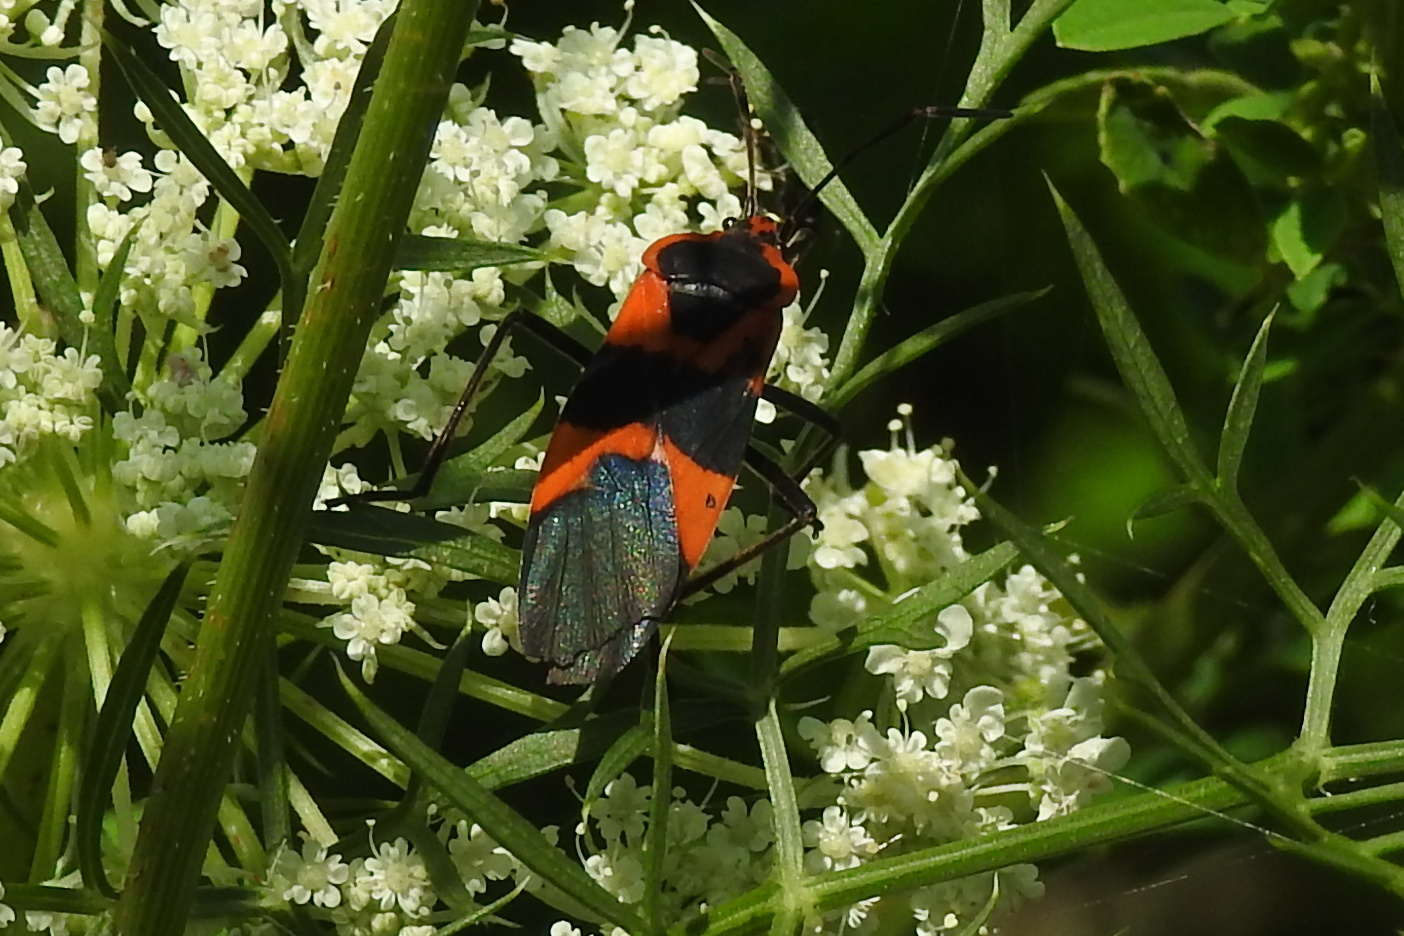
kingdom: Animalia
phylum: Arthropoda
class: Insecta
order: Hemiptera
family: Lygaeidae
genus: Oncopeltus
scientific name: Oncopeltus fasciatus
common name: Large milkweed bug
